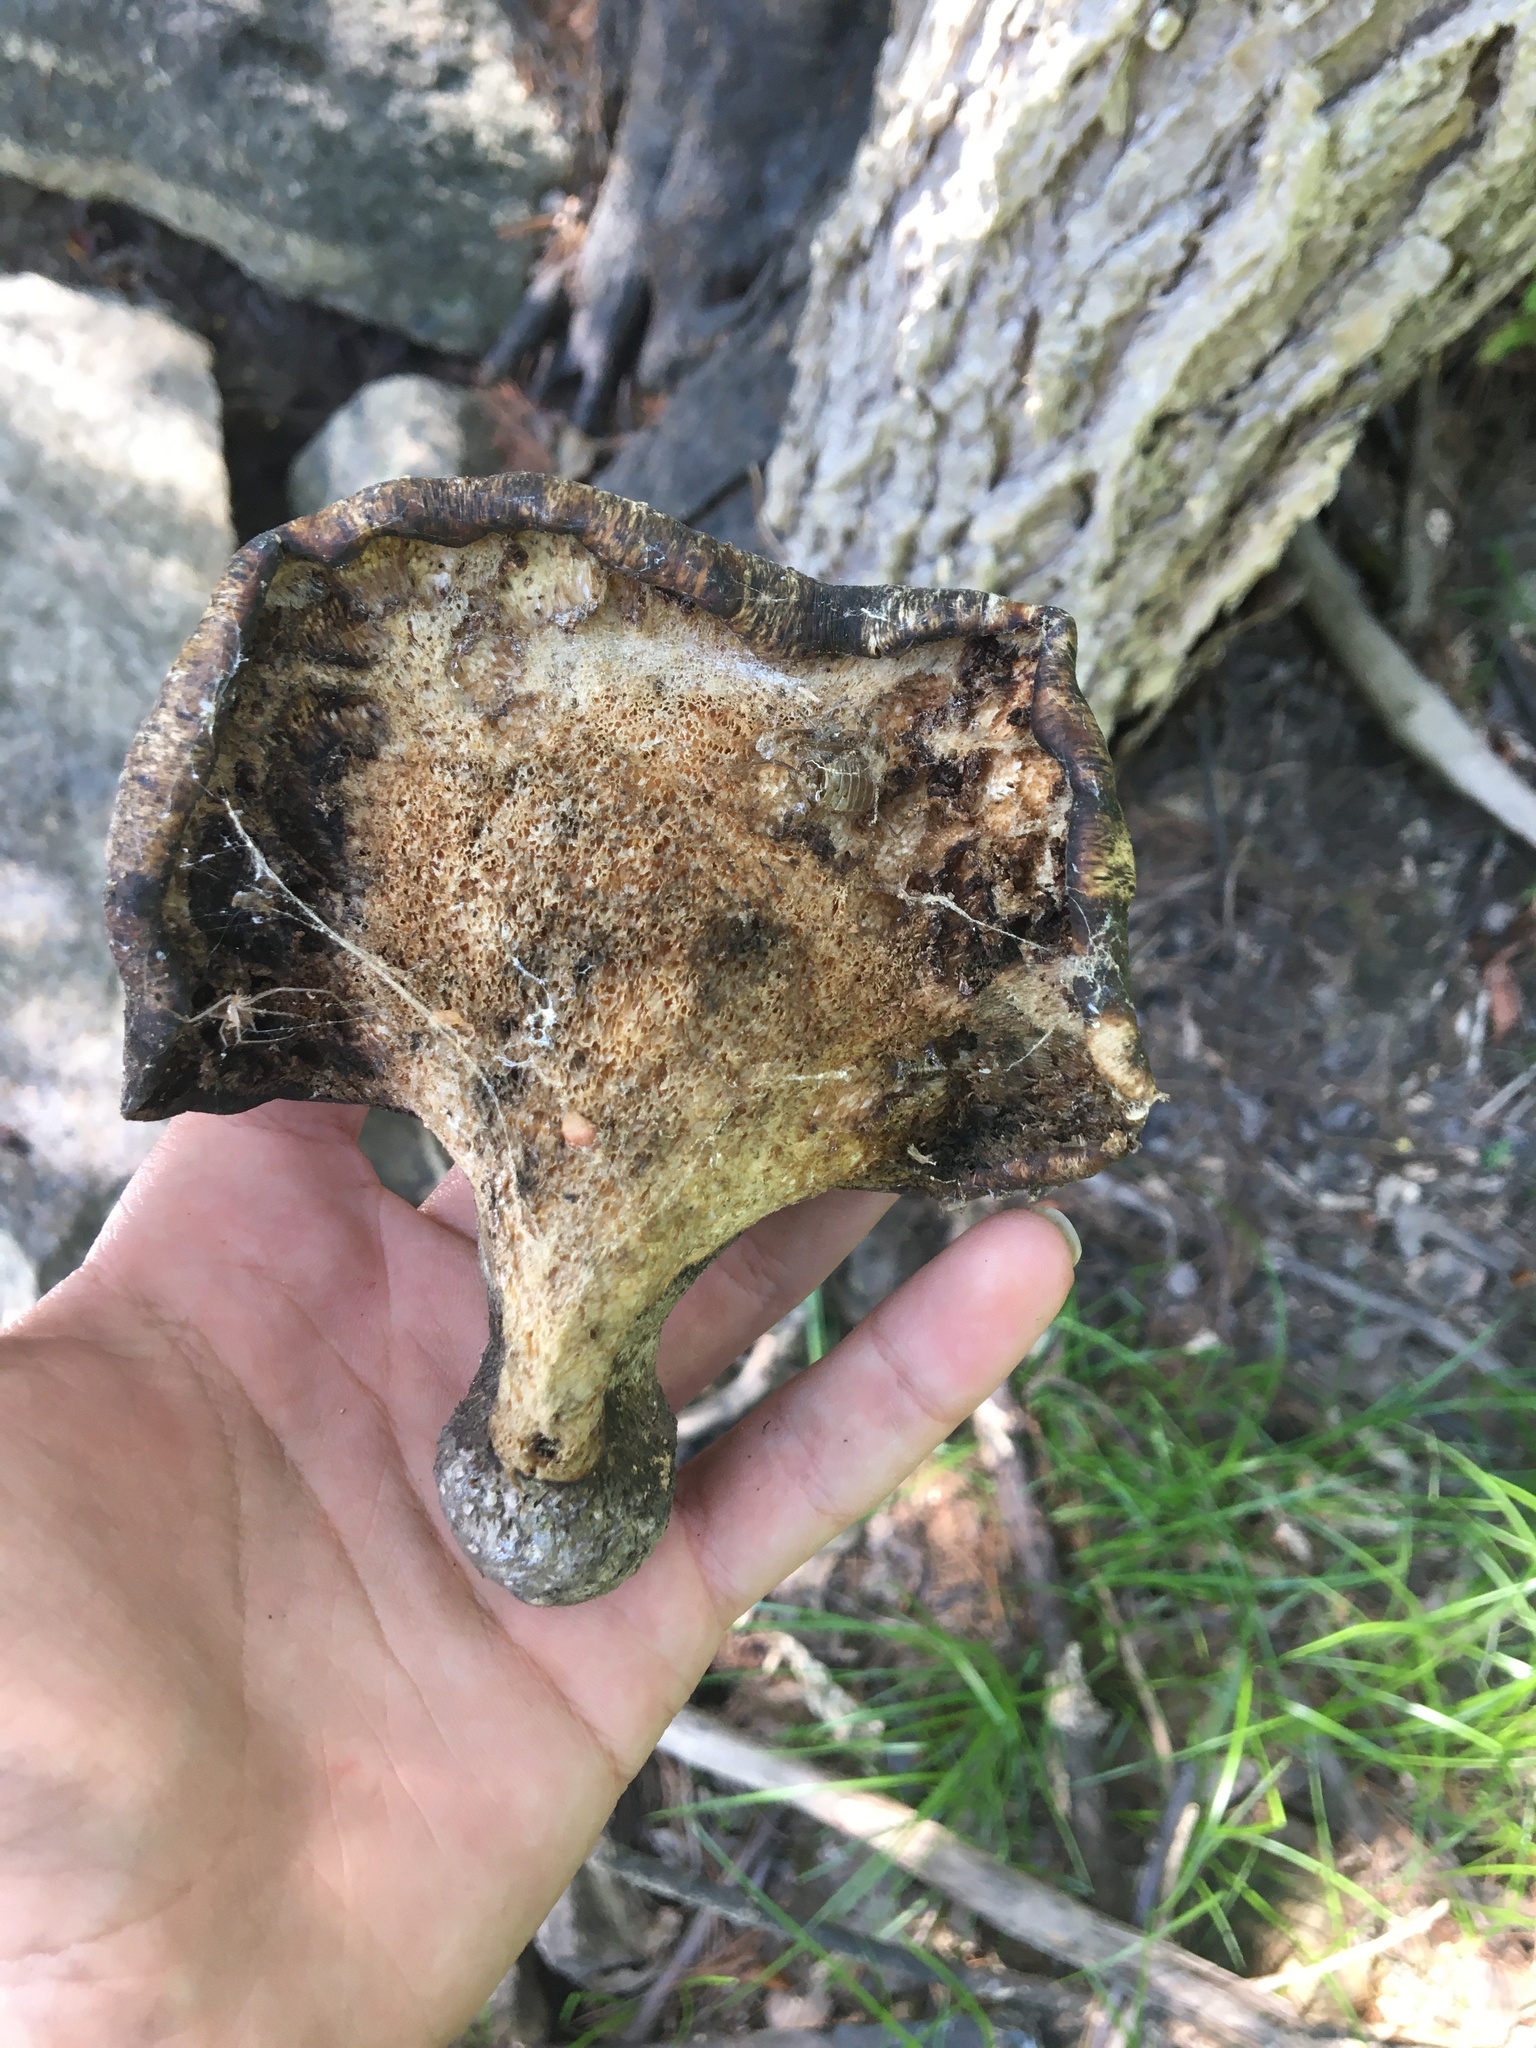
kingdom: Fungi
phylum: Basidiomycota
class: Agaricomycetes
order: Polyporales
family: Polyporaceae
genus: Cerioporus
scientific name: Cerioporus squamosus
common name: Dryad's saddle
